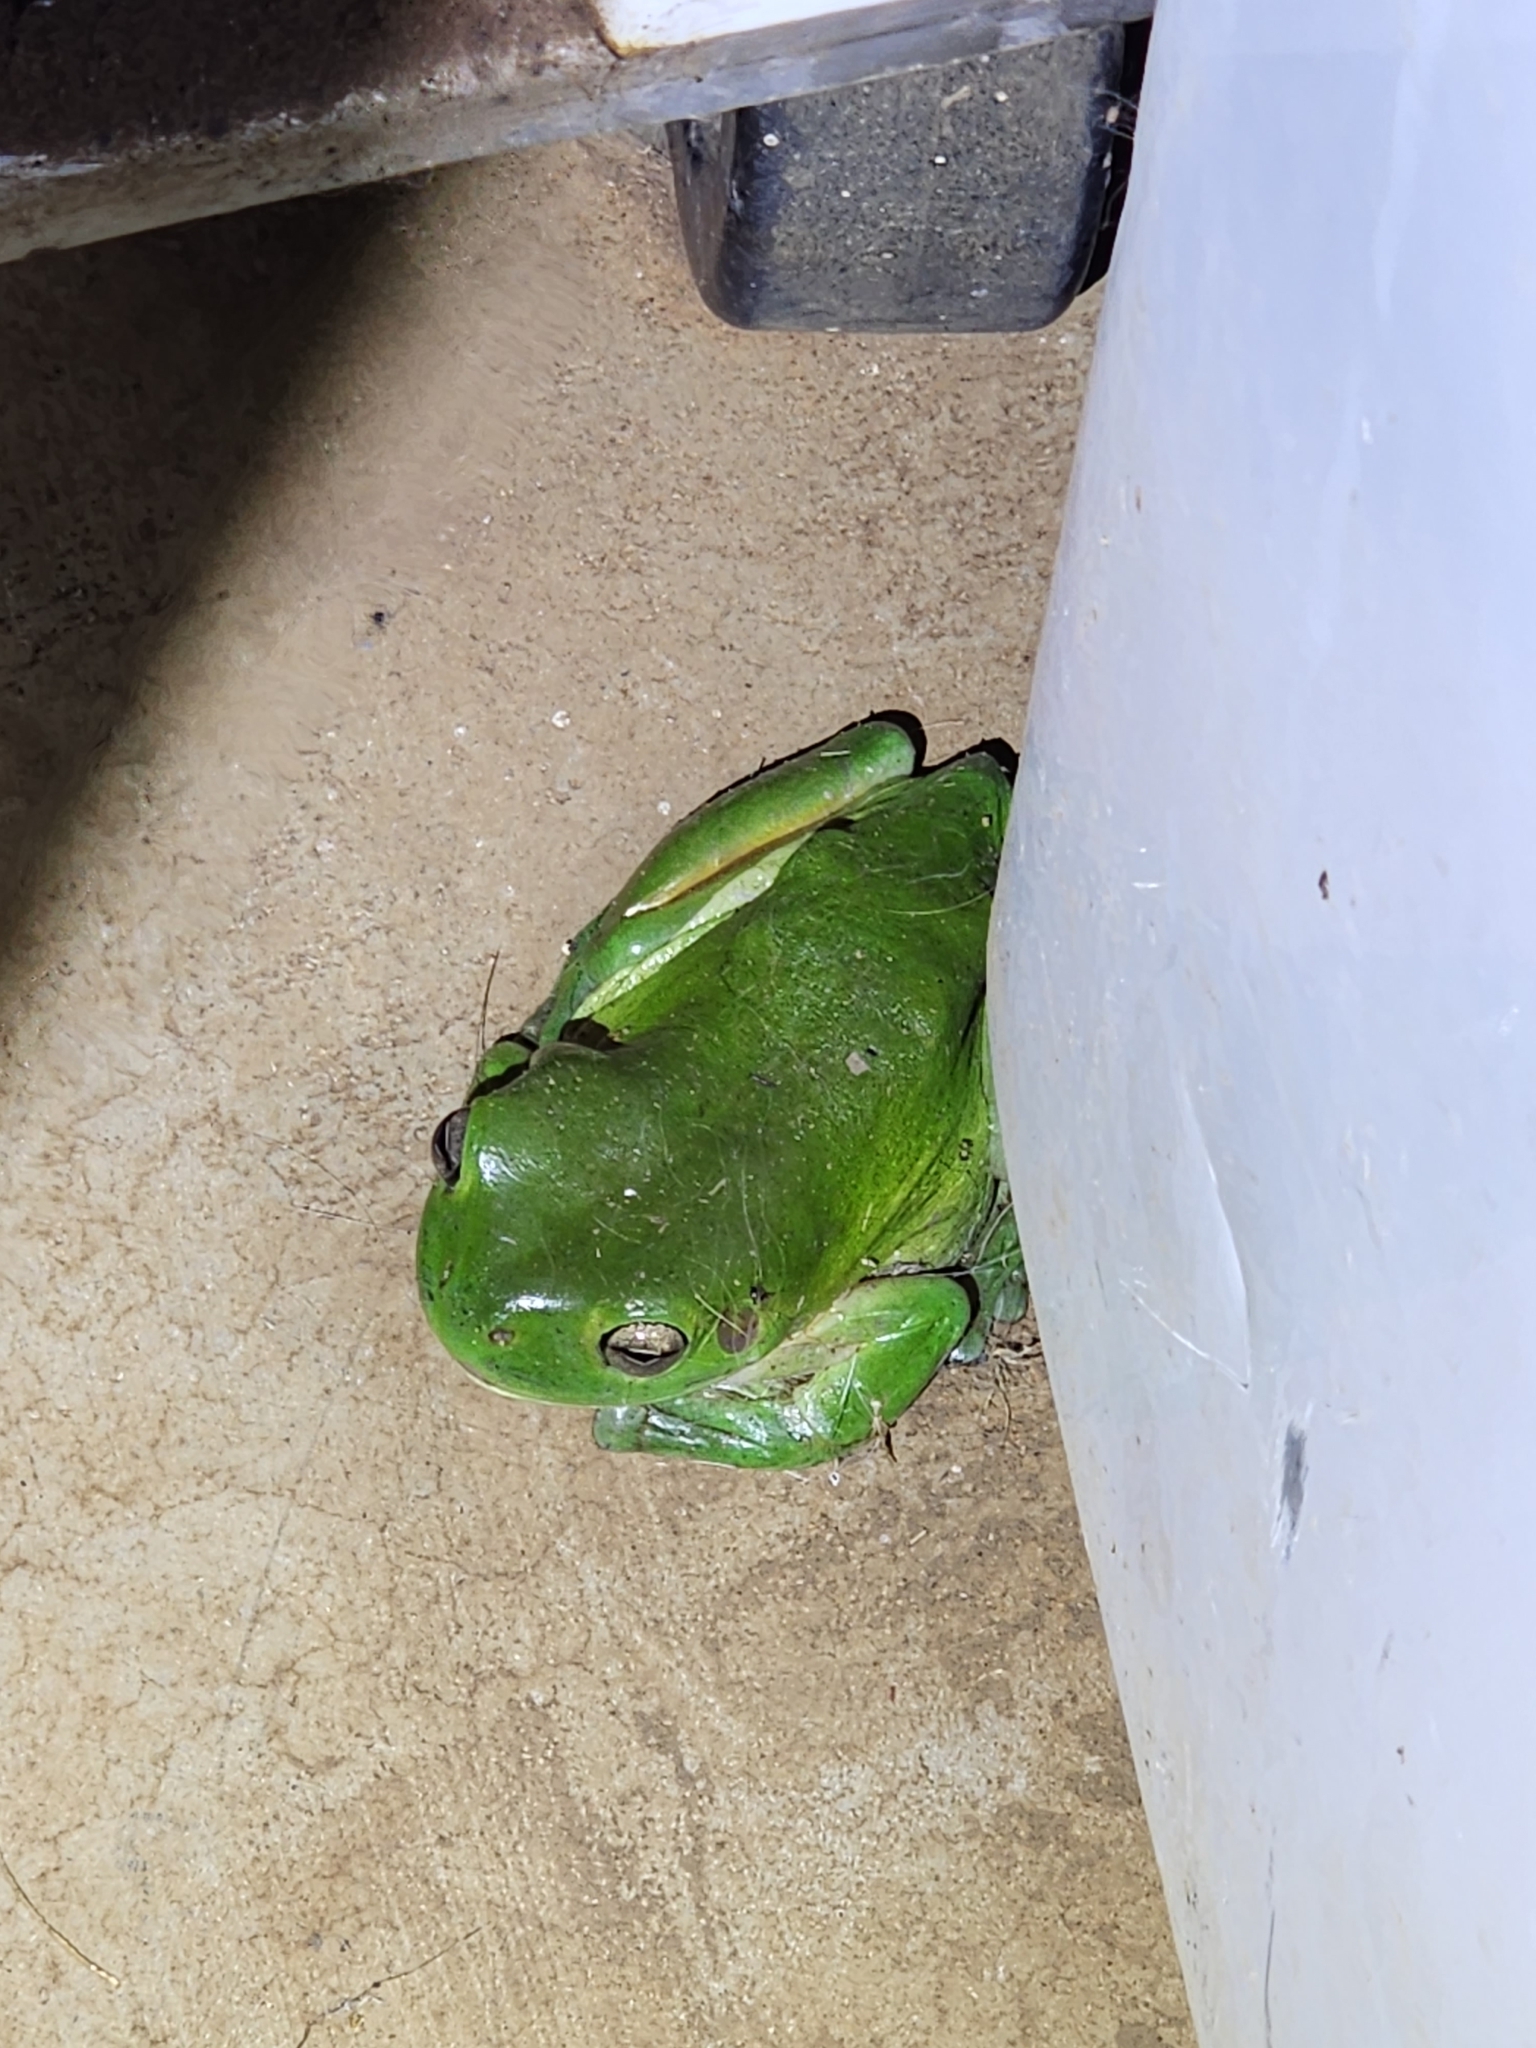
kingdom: Animalia
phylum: Chordata
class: Amphibia
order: Anura
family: Pelodryadidae
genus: Ranoidea
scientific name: Ranoidea caerulea
